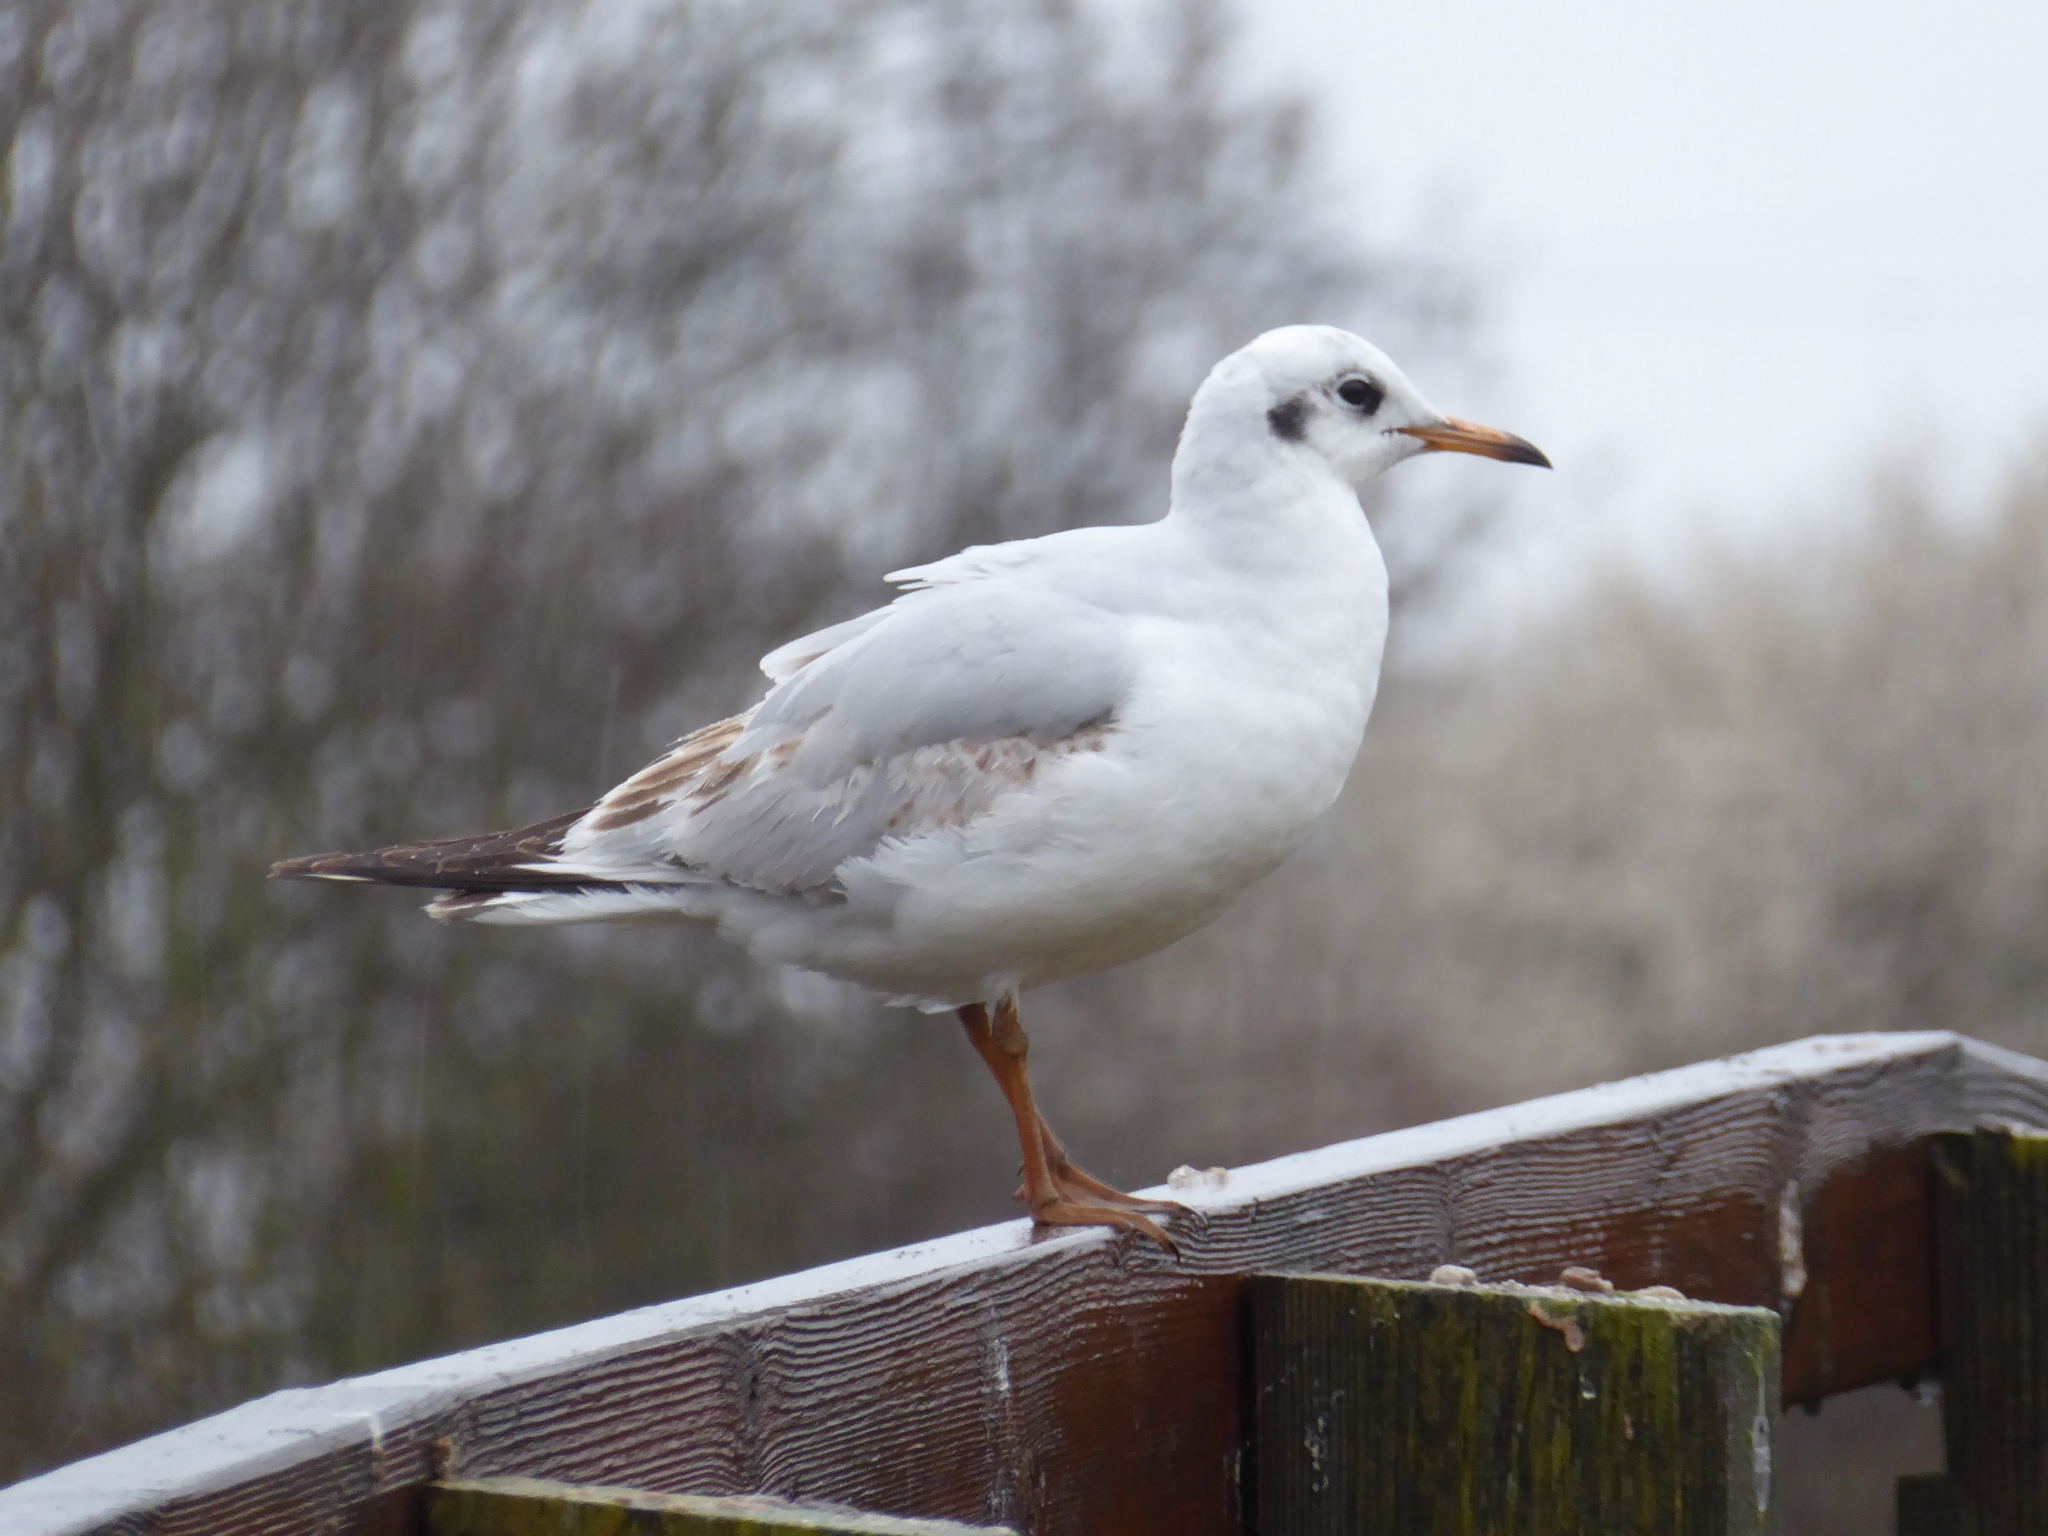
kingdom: Animalia
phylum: Chordata
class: Aves
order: Charadriiformes
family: Laridae
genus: Chroicocephalus
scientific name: Chroicocephalus ridibundus
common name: Black-headed gull
